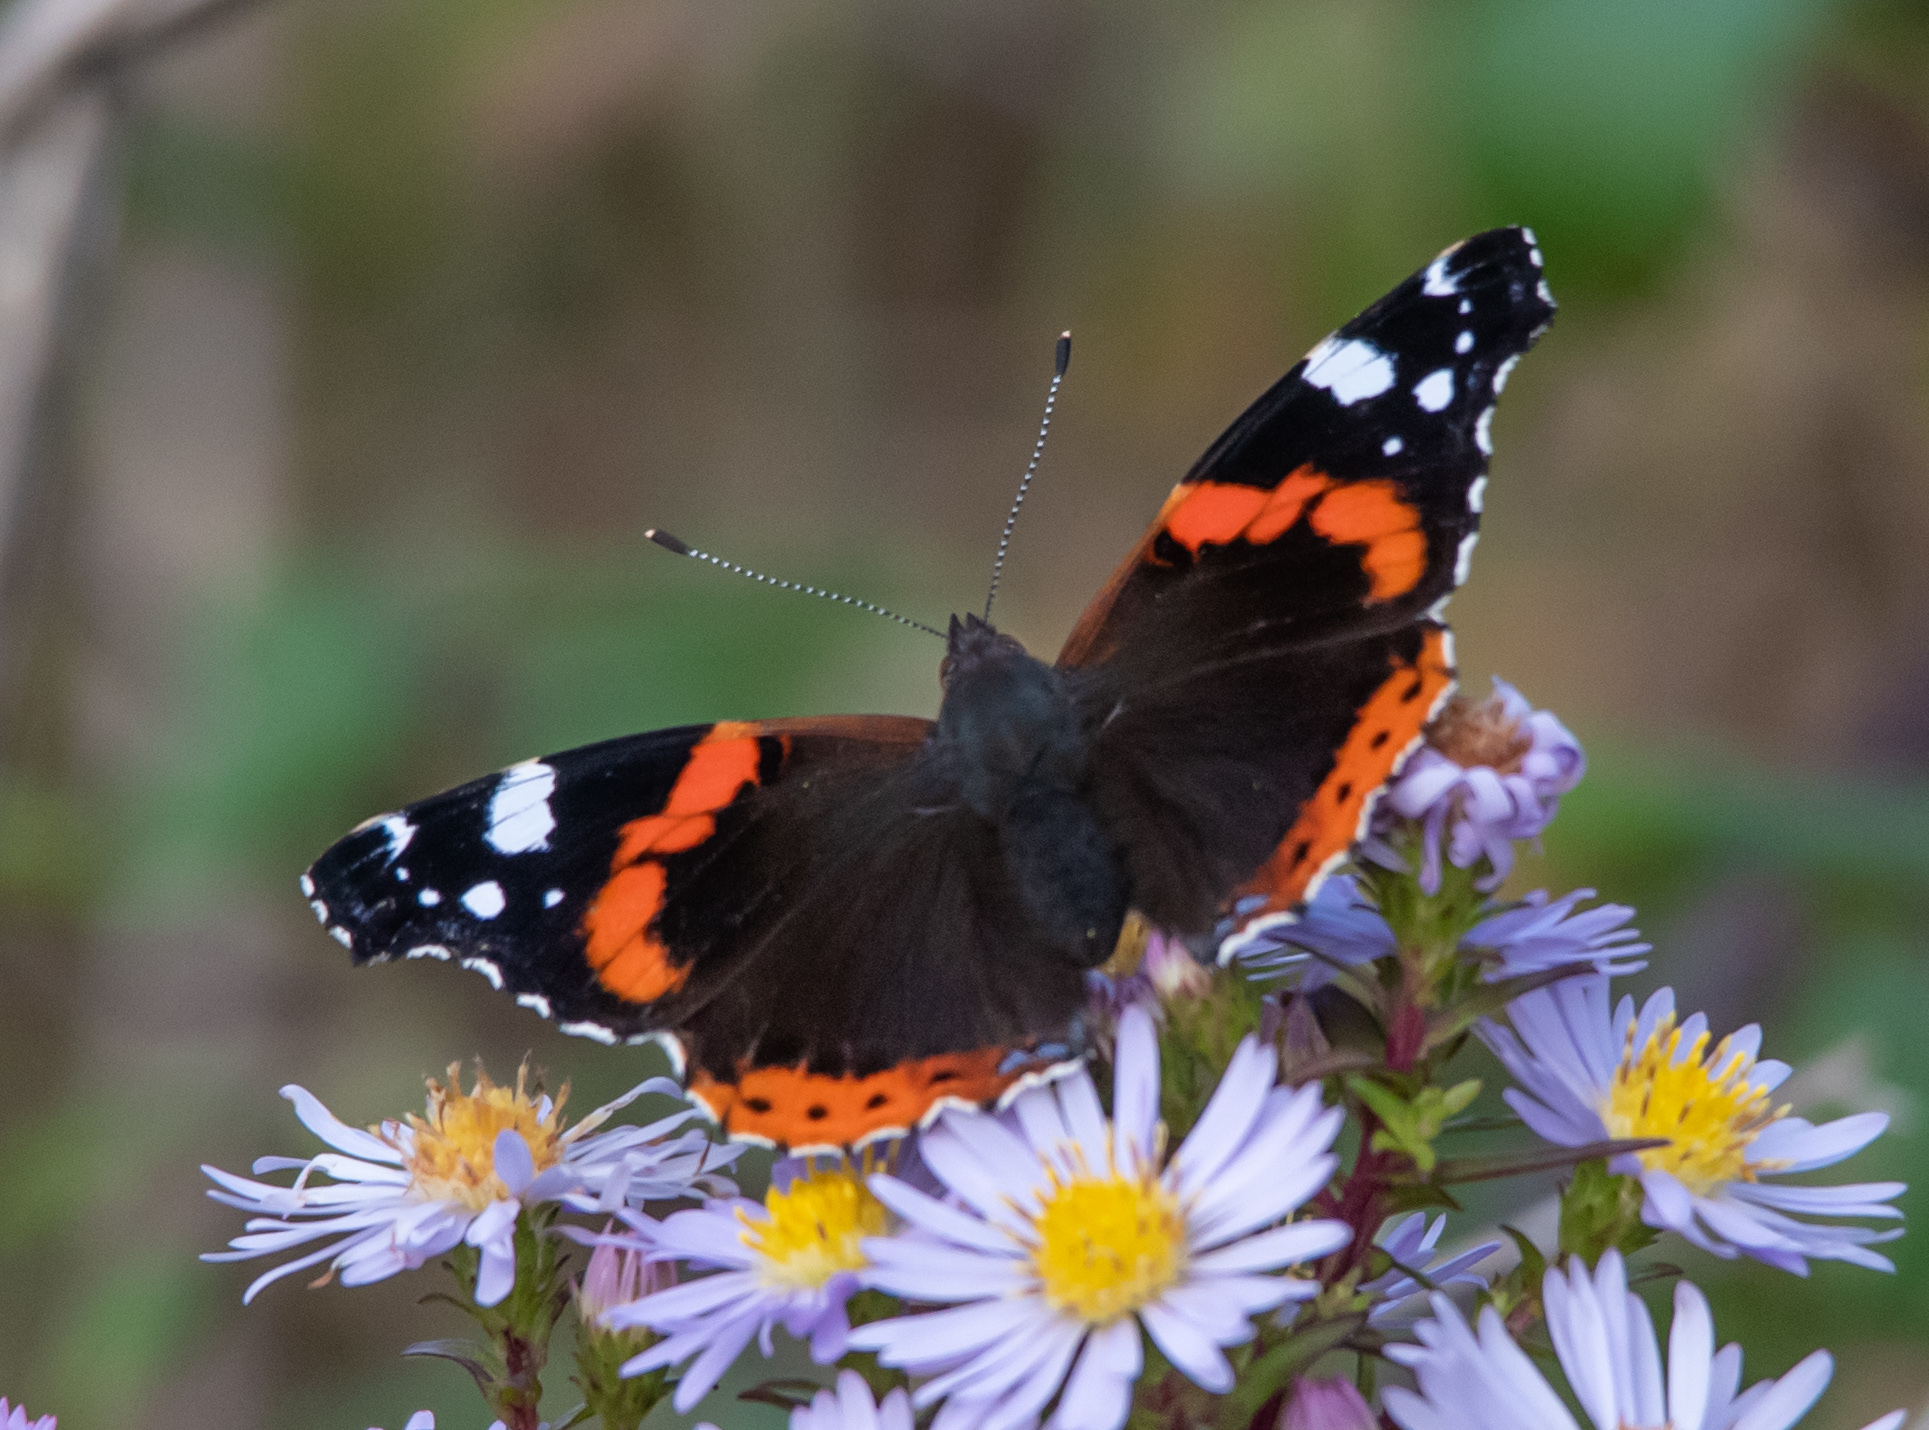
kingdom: Animalia
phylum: Arthropoda
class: Insecta
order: Lepidoptera
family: Nymphalidae
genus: Vanessa
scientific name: Vanessa atalanta
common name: Red admiral
